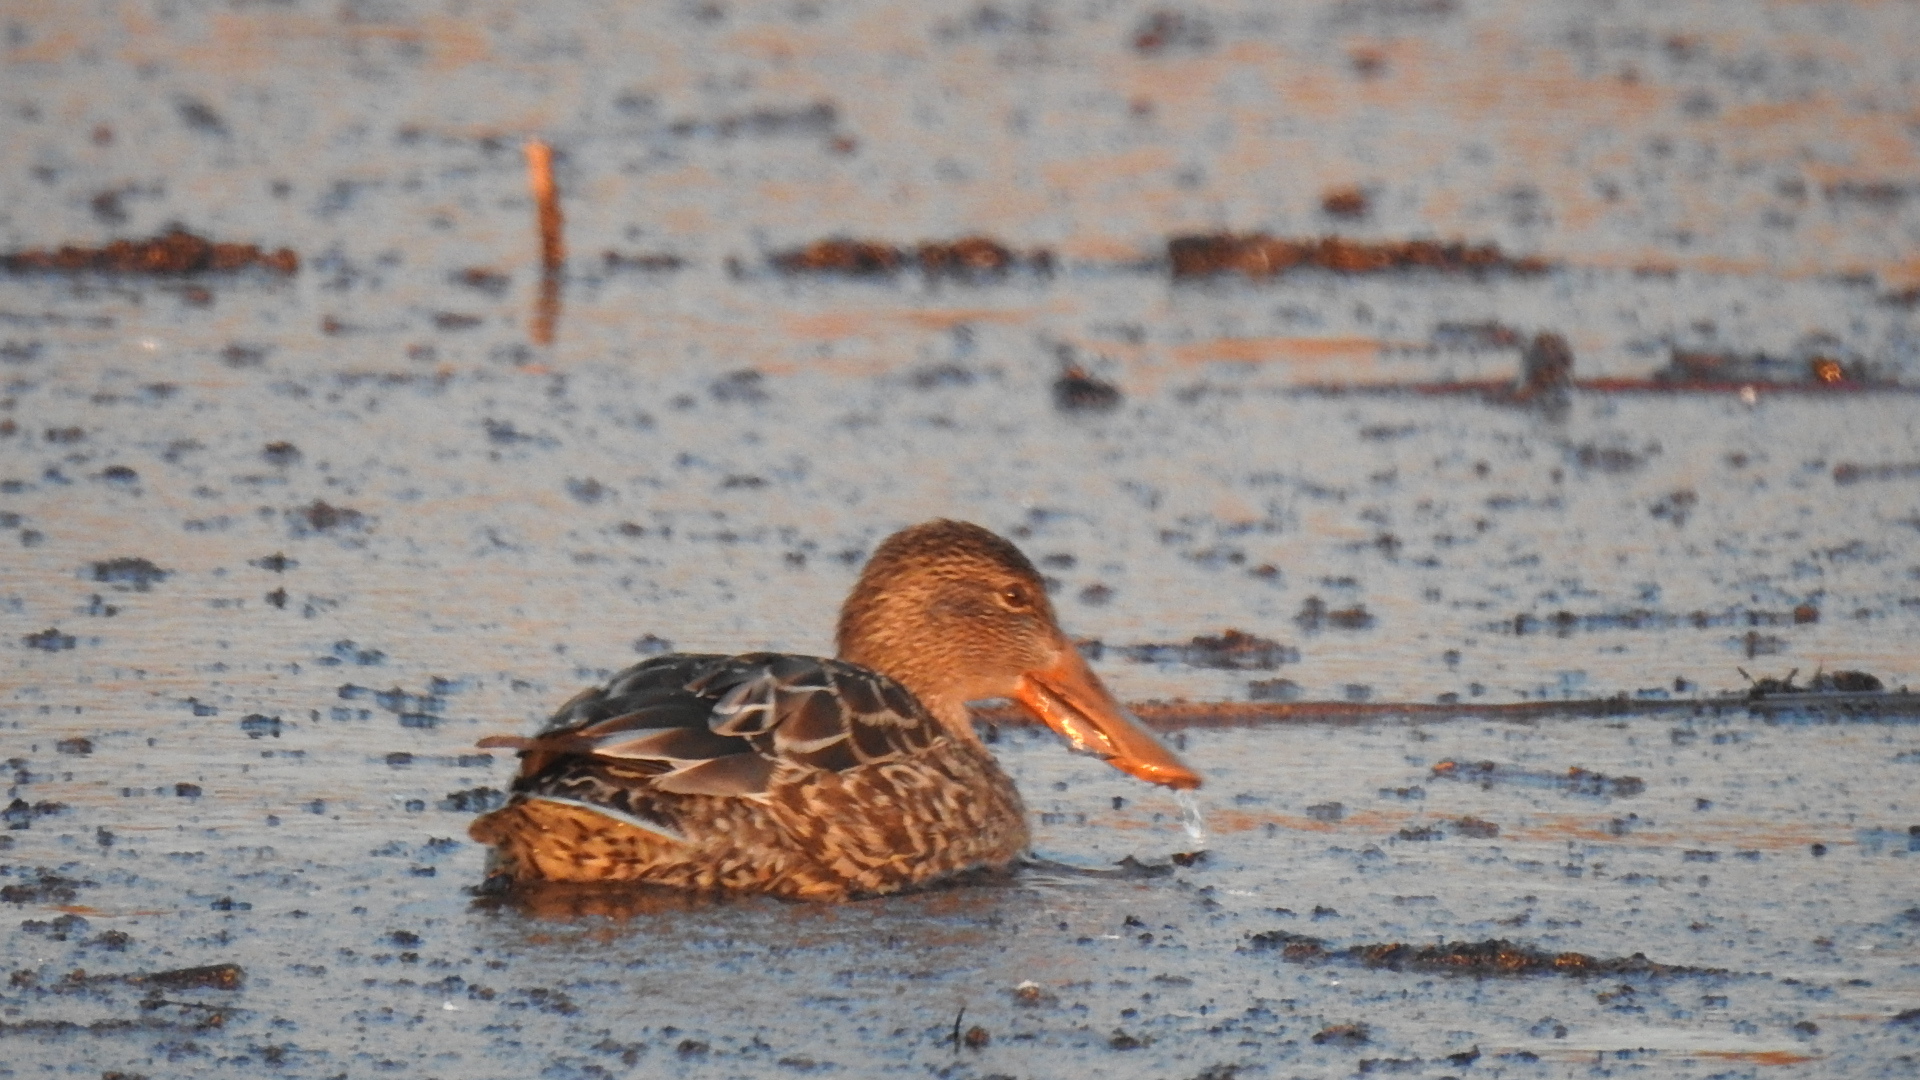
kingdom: Animalia
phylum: Chordata
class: Aves
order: Anseriformes
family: Anatidae
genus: Spatula
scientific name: Spatula clypeata
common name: Northern shoveler
